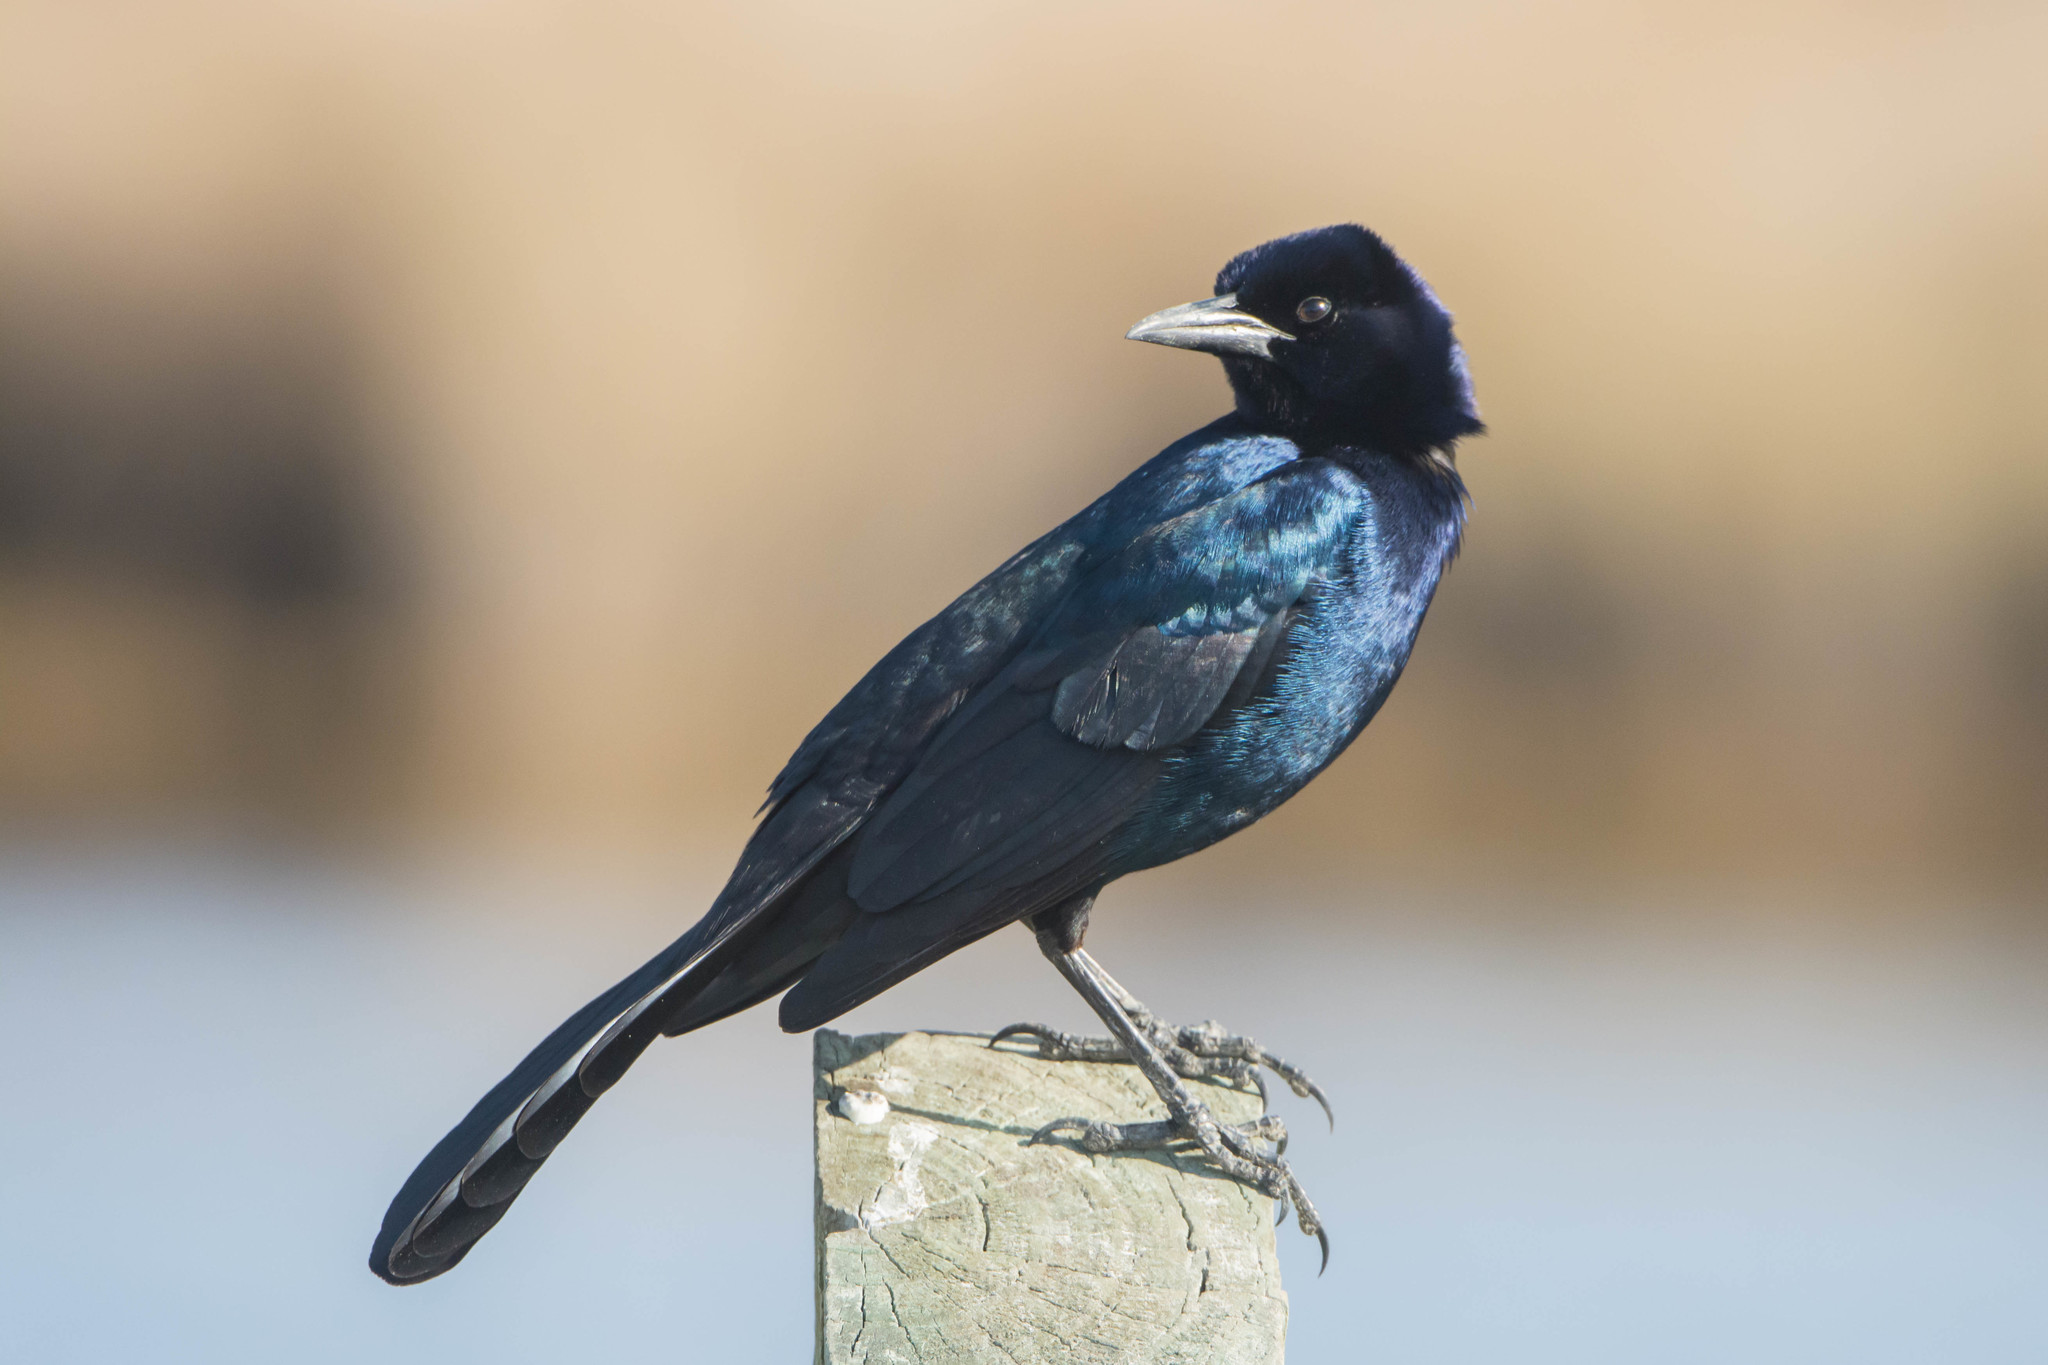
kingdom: Animalia
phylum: Chordata
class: Aves
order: Passeriformes
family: Icteridae
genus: Quiscalus
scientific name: Quiscalus major
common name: Boat-tailed grackle
